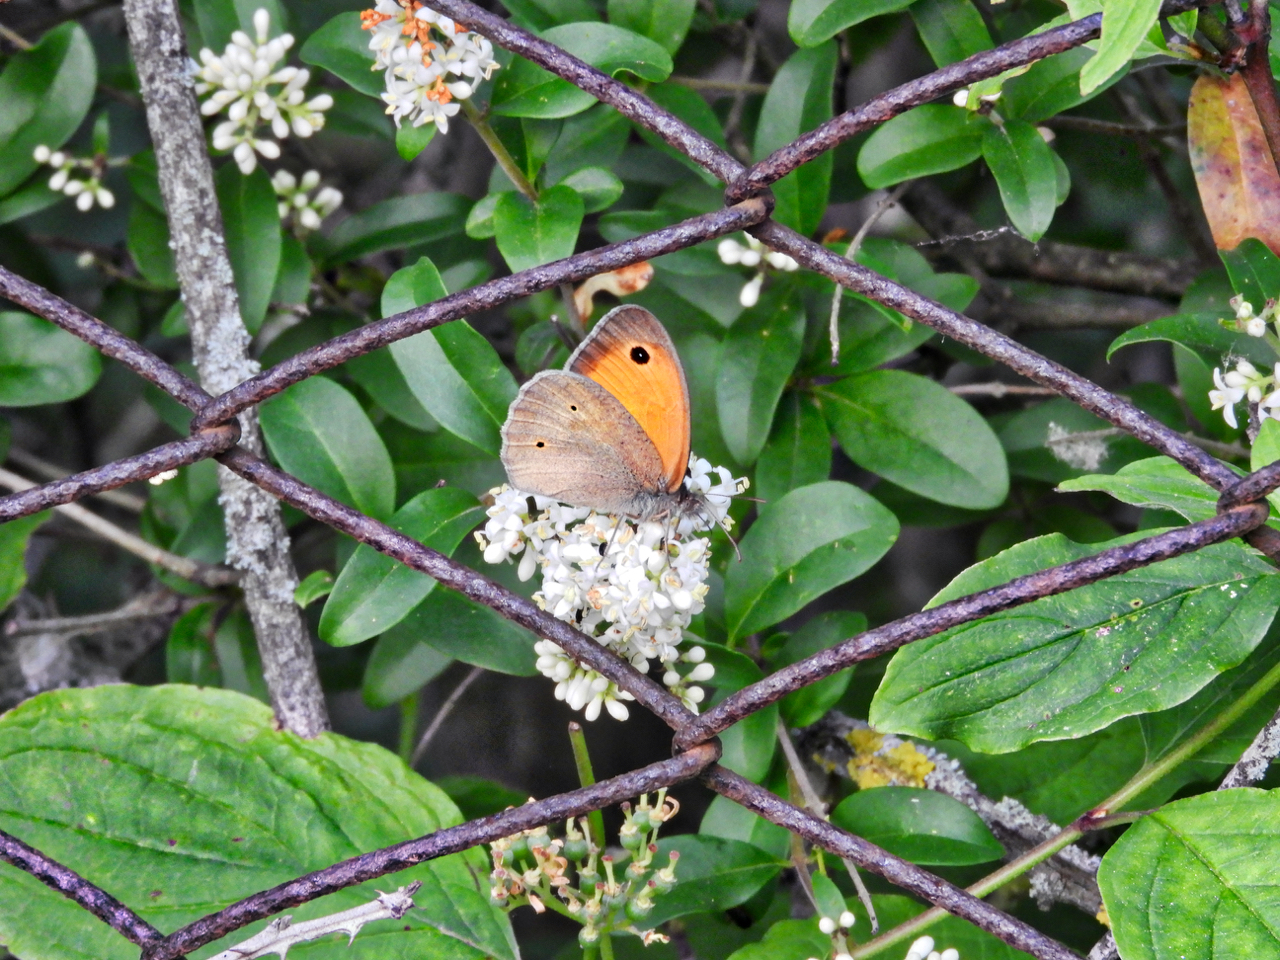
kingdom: Animalia
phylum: Arthropoda
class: Insecta
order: Lepidoptera
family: Nymphalidae
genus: Maniola
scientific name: Maniola jurtina
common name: Meadow brown
